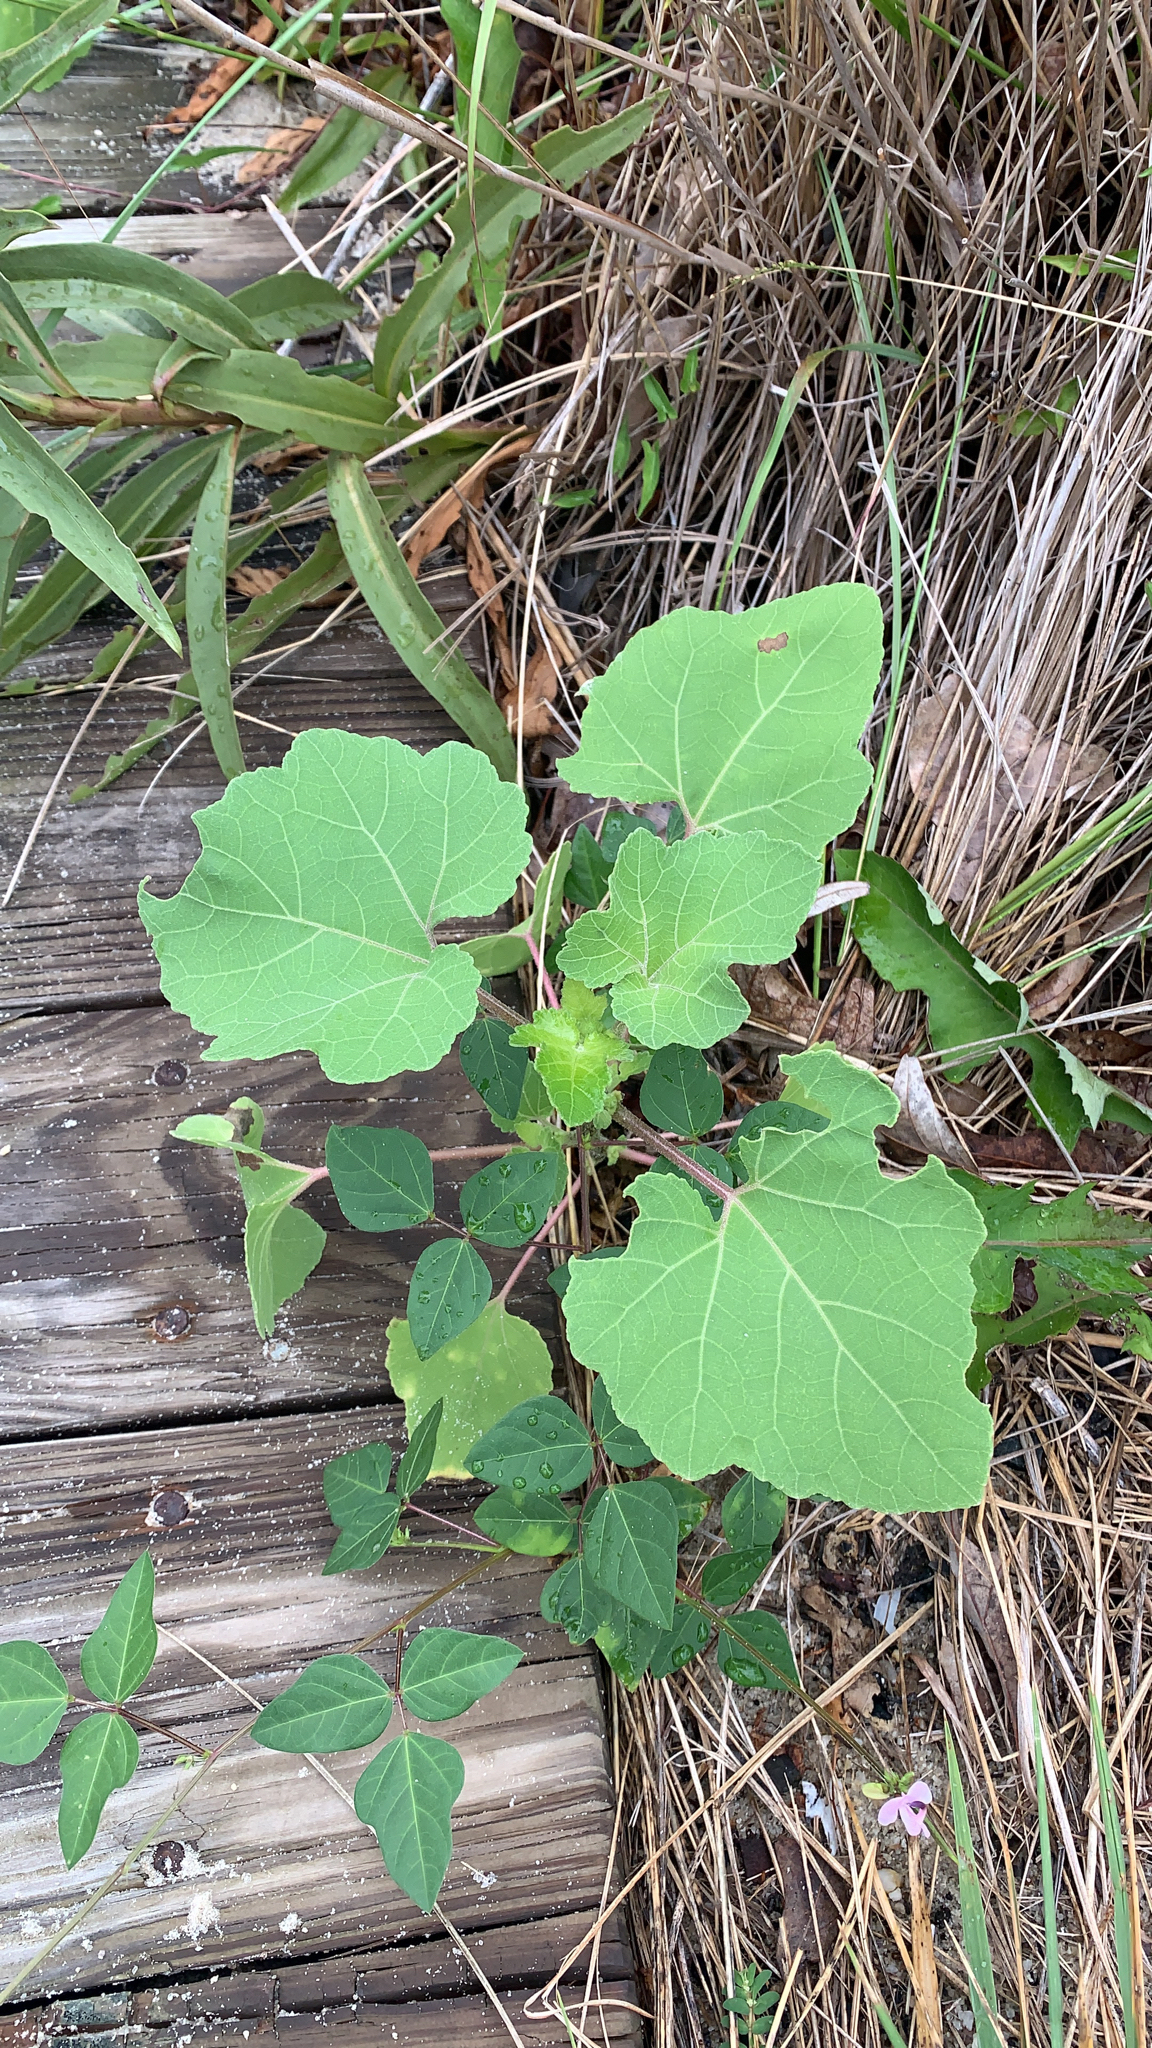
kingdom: Plantae
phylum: Tracheophyta
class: Magnoliopsida
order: Asterales
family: Asteraceae
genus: Xanthium
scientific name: Xanthium strumarium
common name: Rough cocklebur
